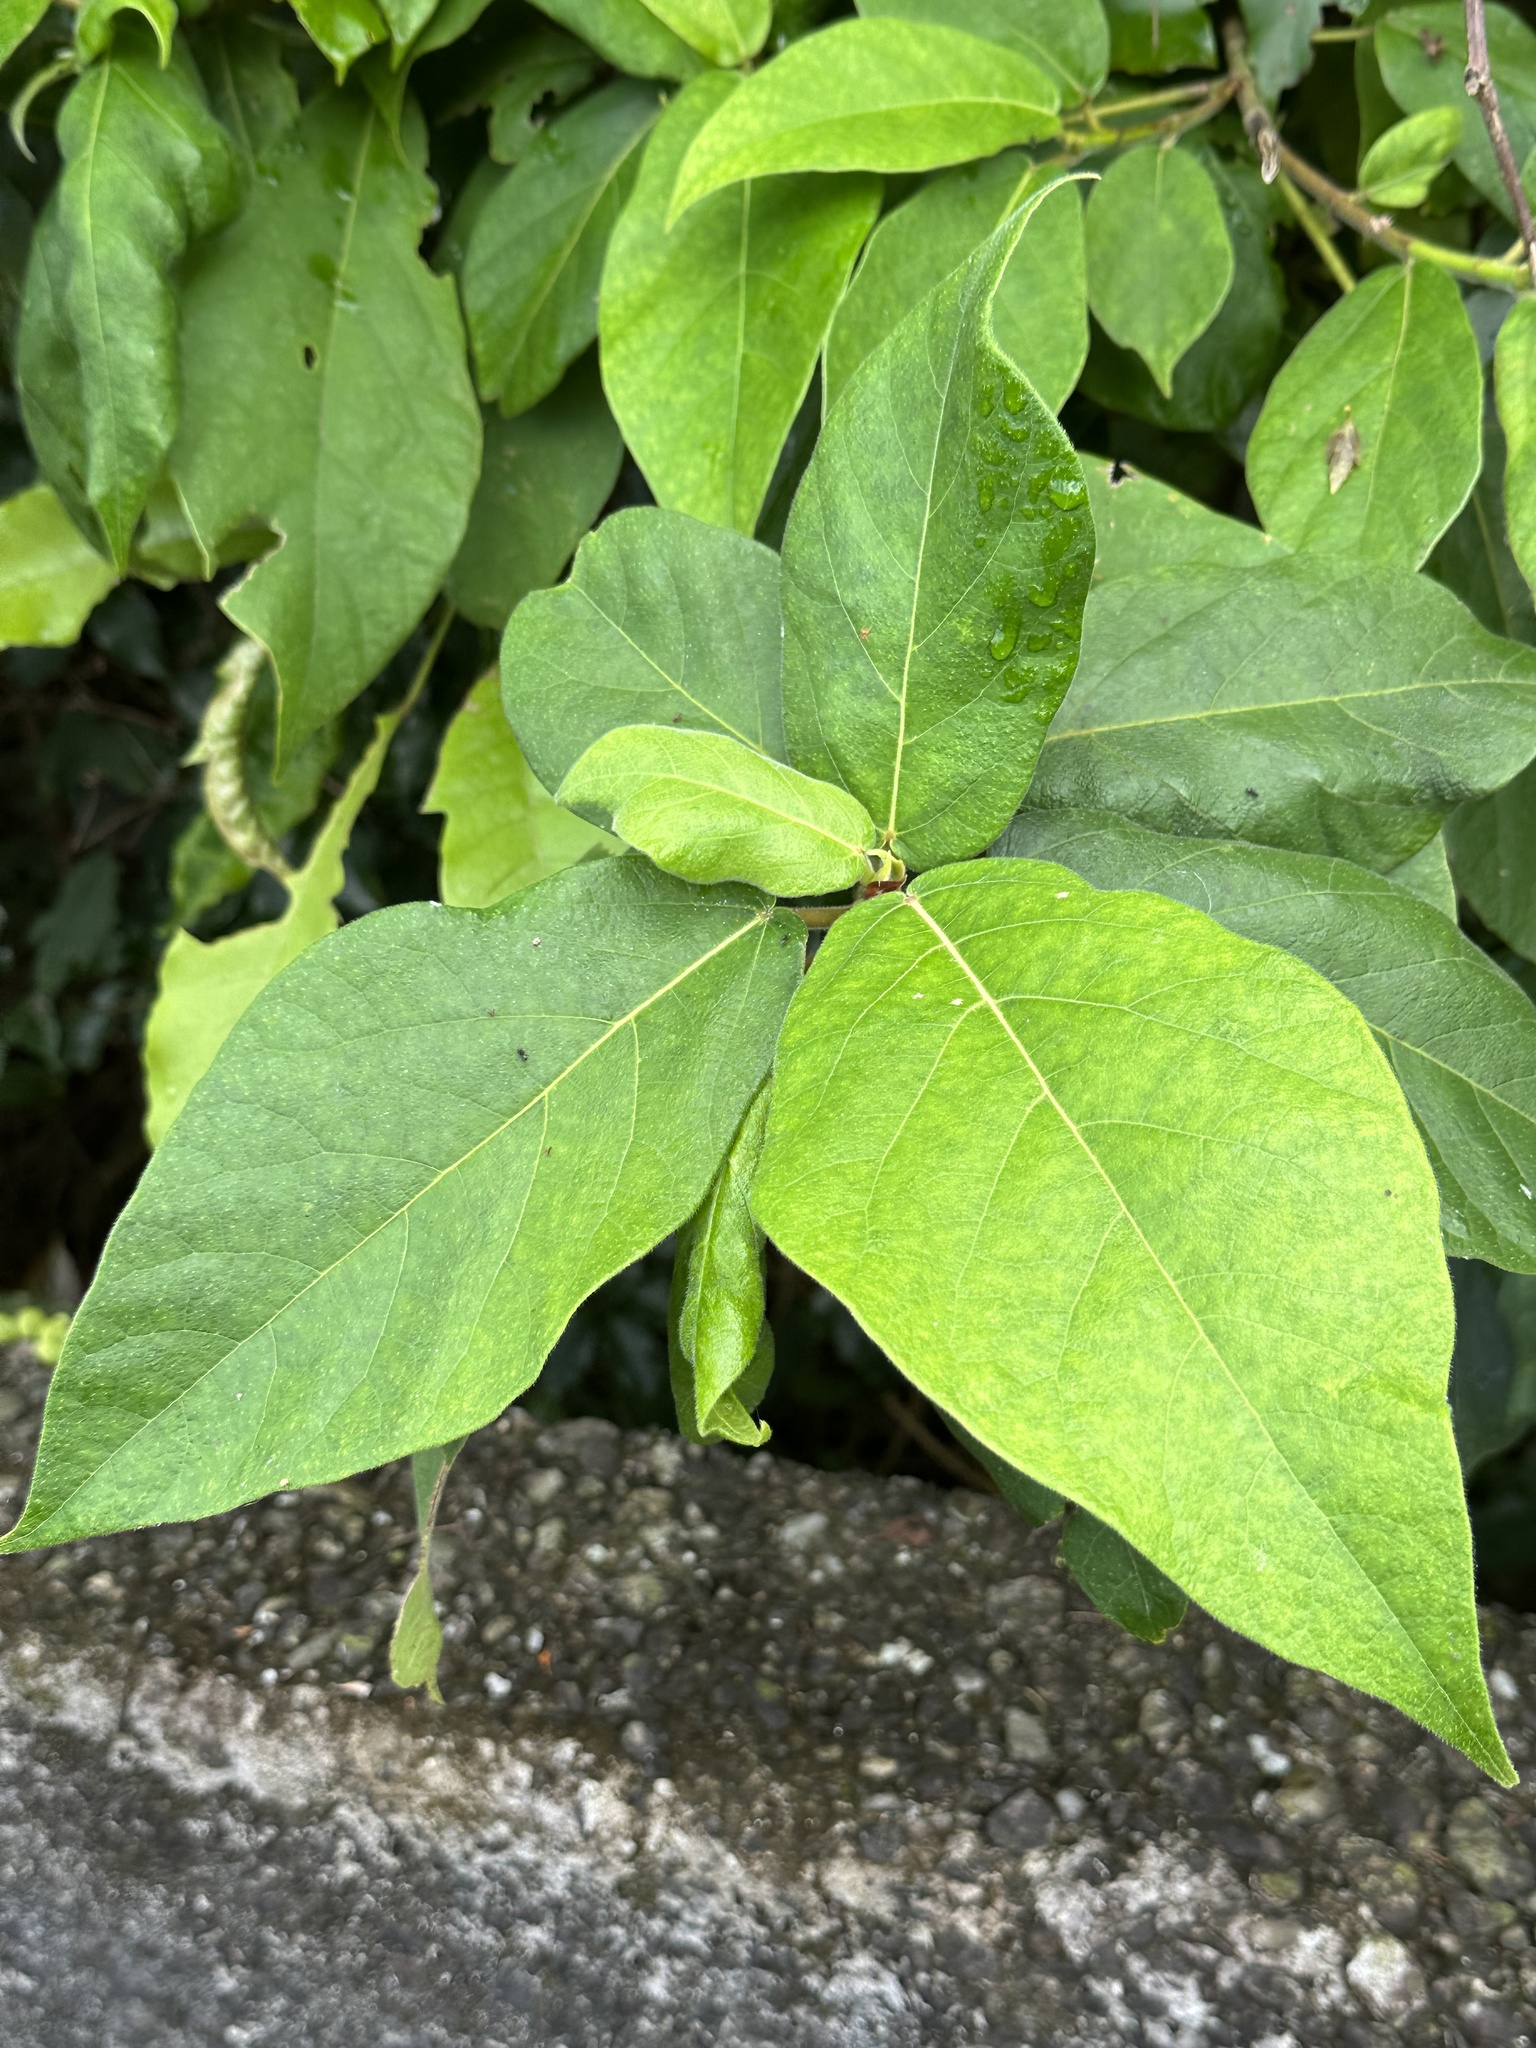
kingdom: Plantae
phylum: Tracheophyta
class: Magnoliopsida
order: Rosales
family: Moraceae
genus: Ficus
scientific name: Ficus erecta
